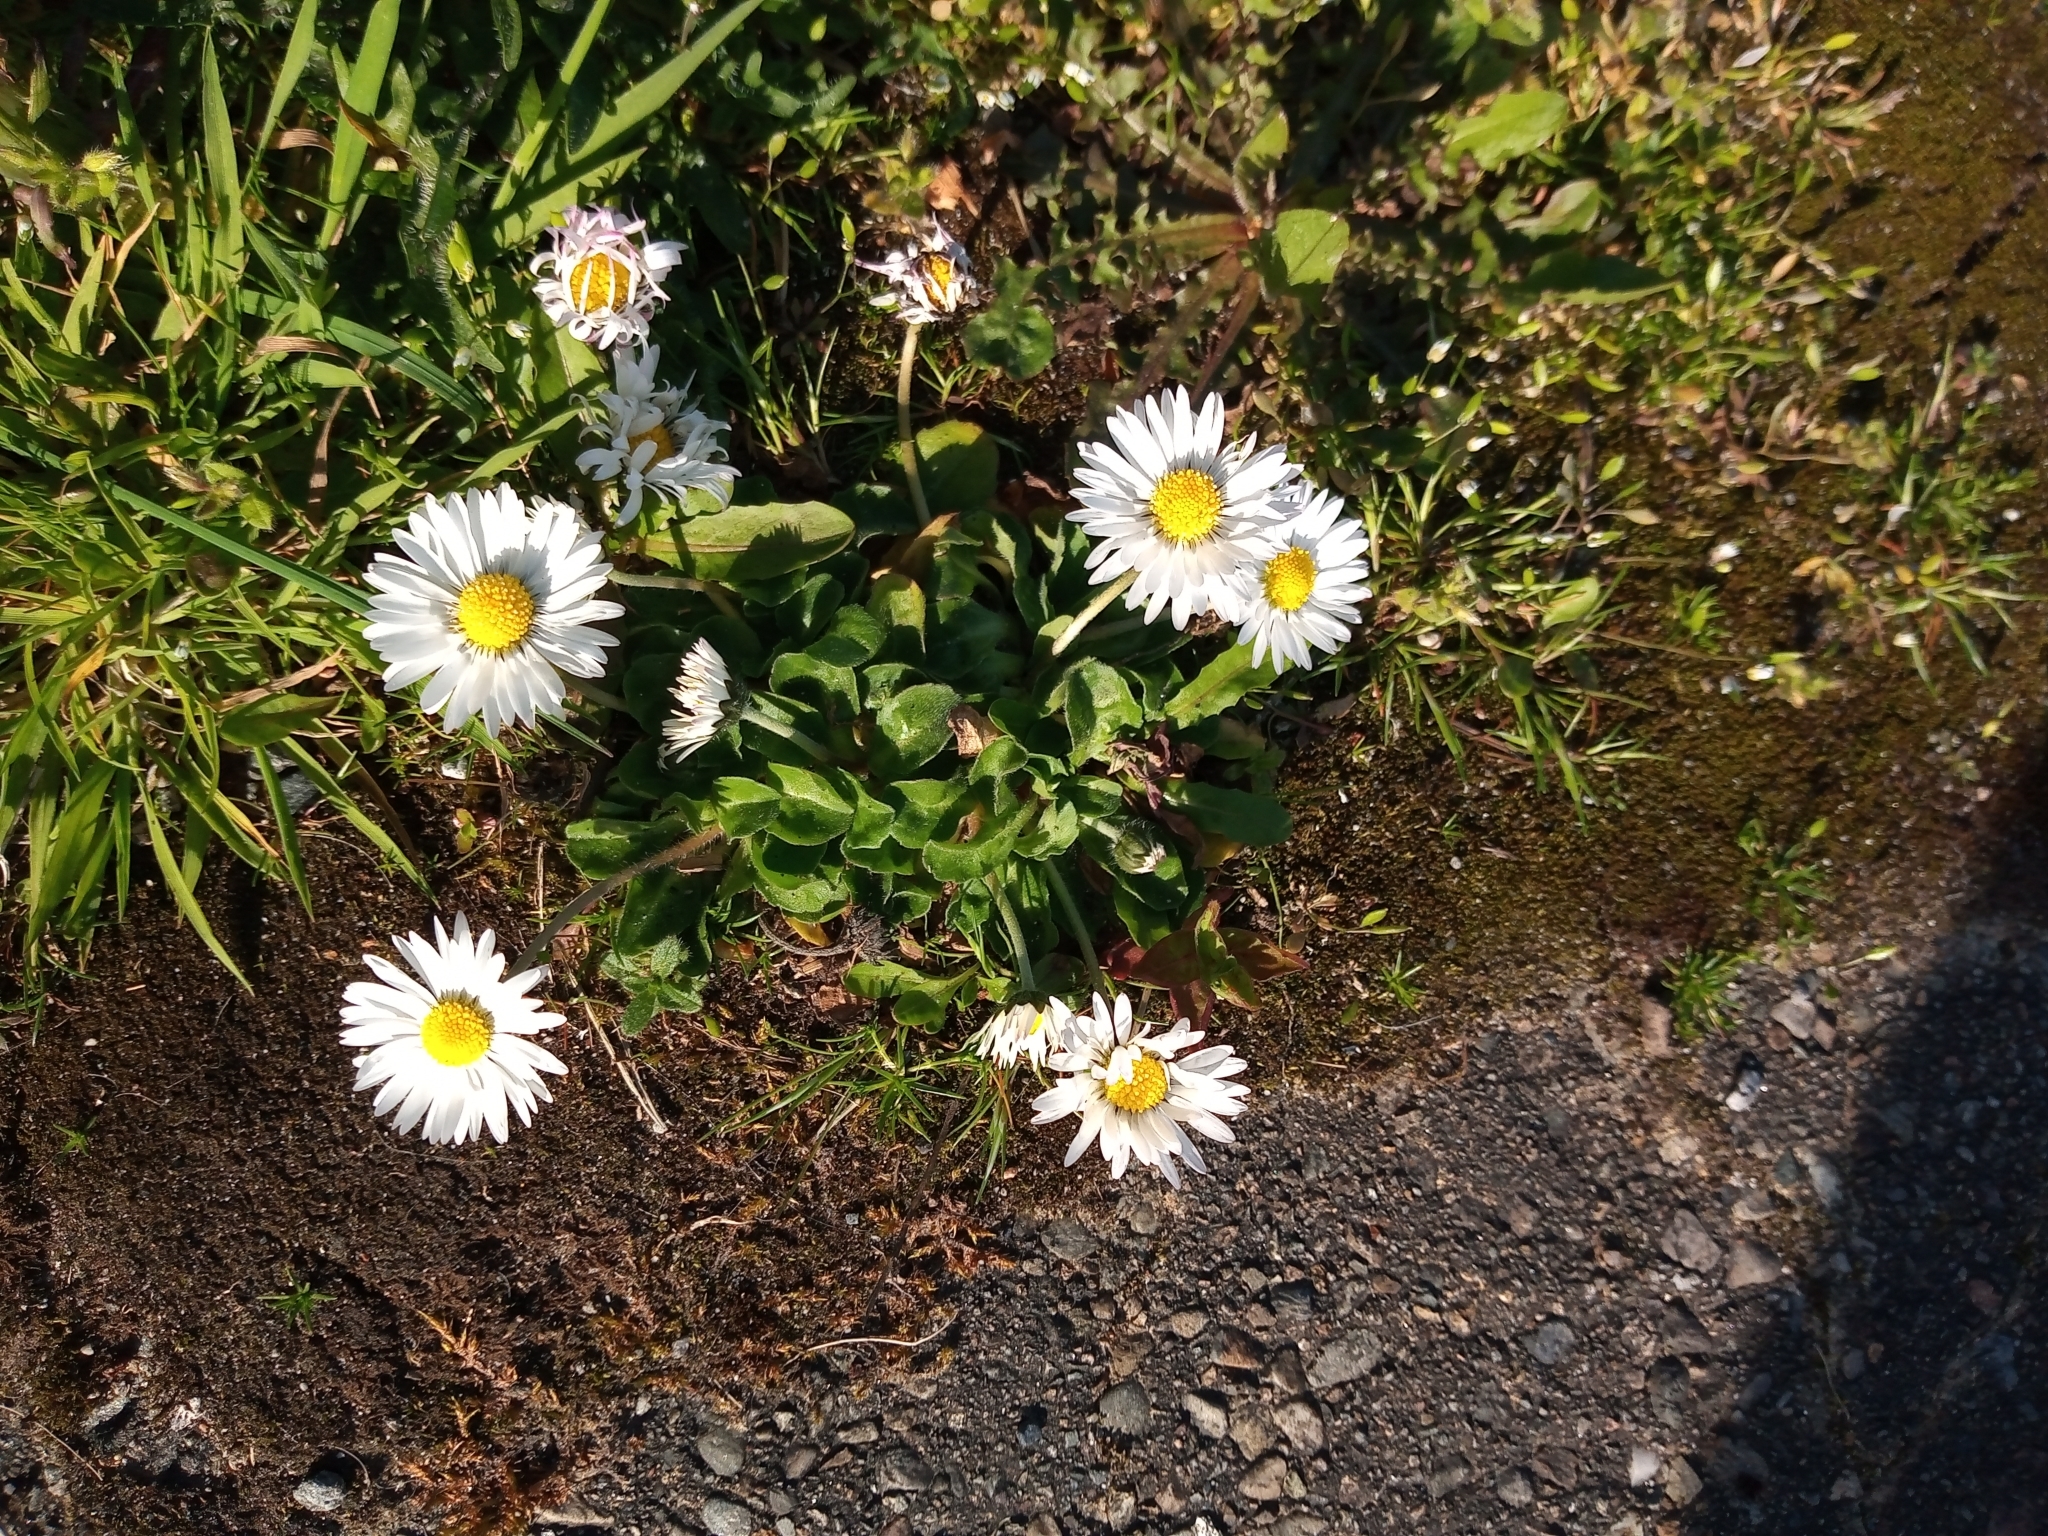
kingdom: Plantae
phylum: Tracheophyta
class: Magnoliopsida
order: Asterales
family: Asteraceae
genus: Bellis
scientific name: Bellis perennis
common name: Lawndaisy
